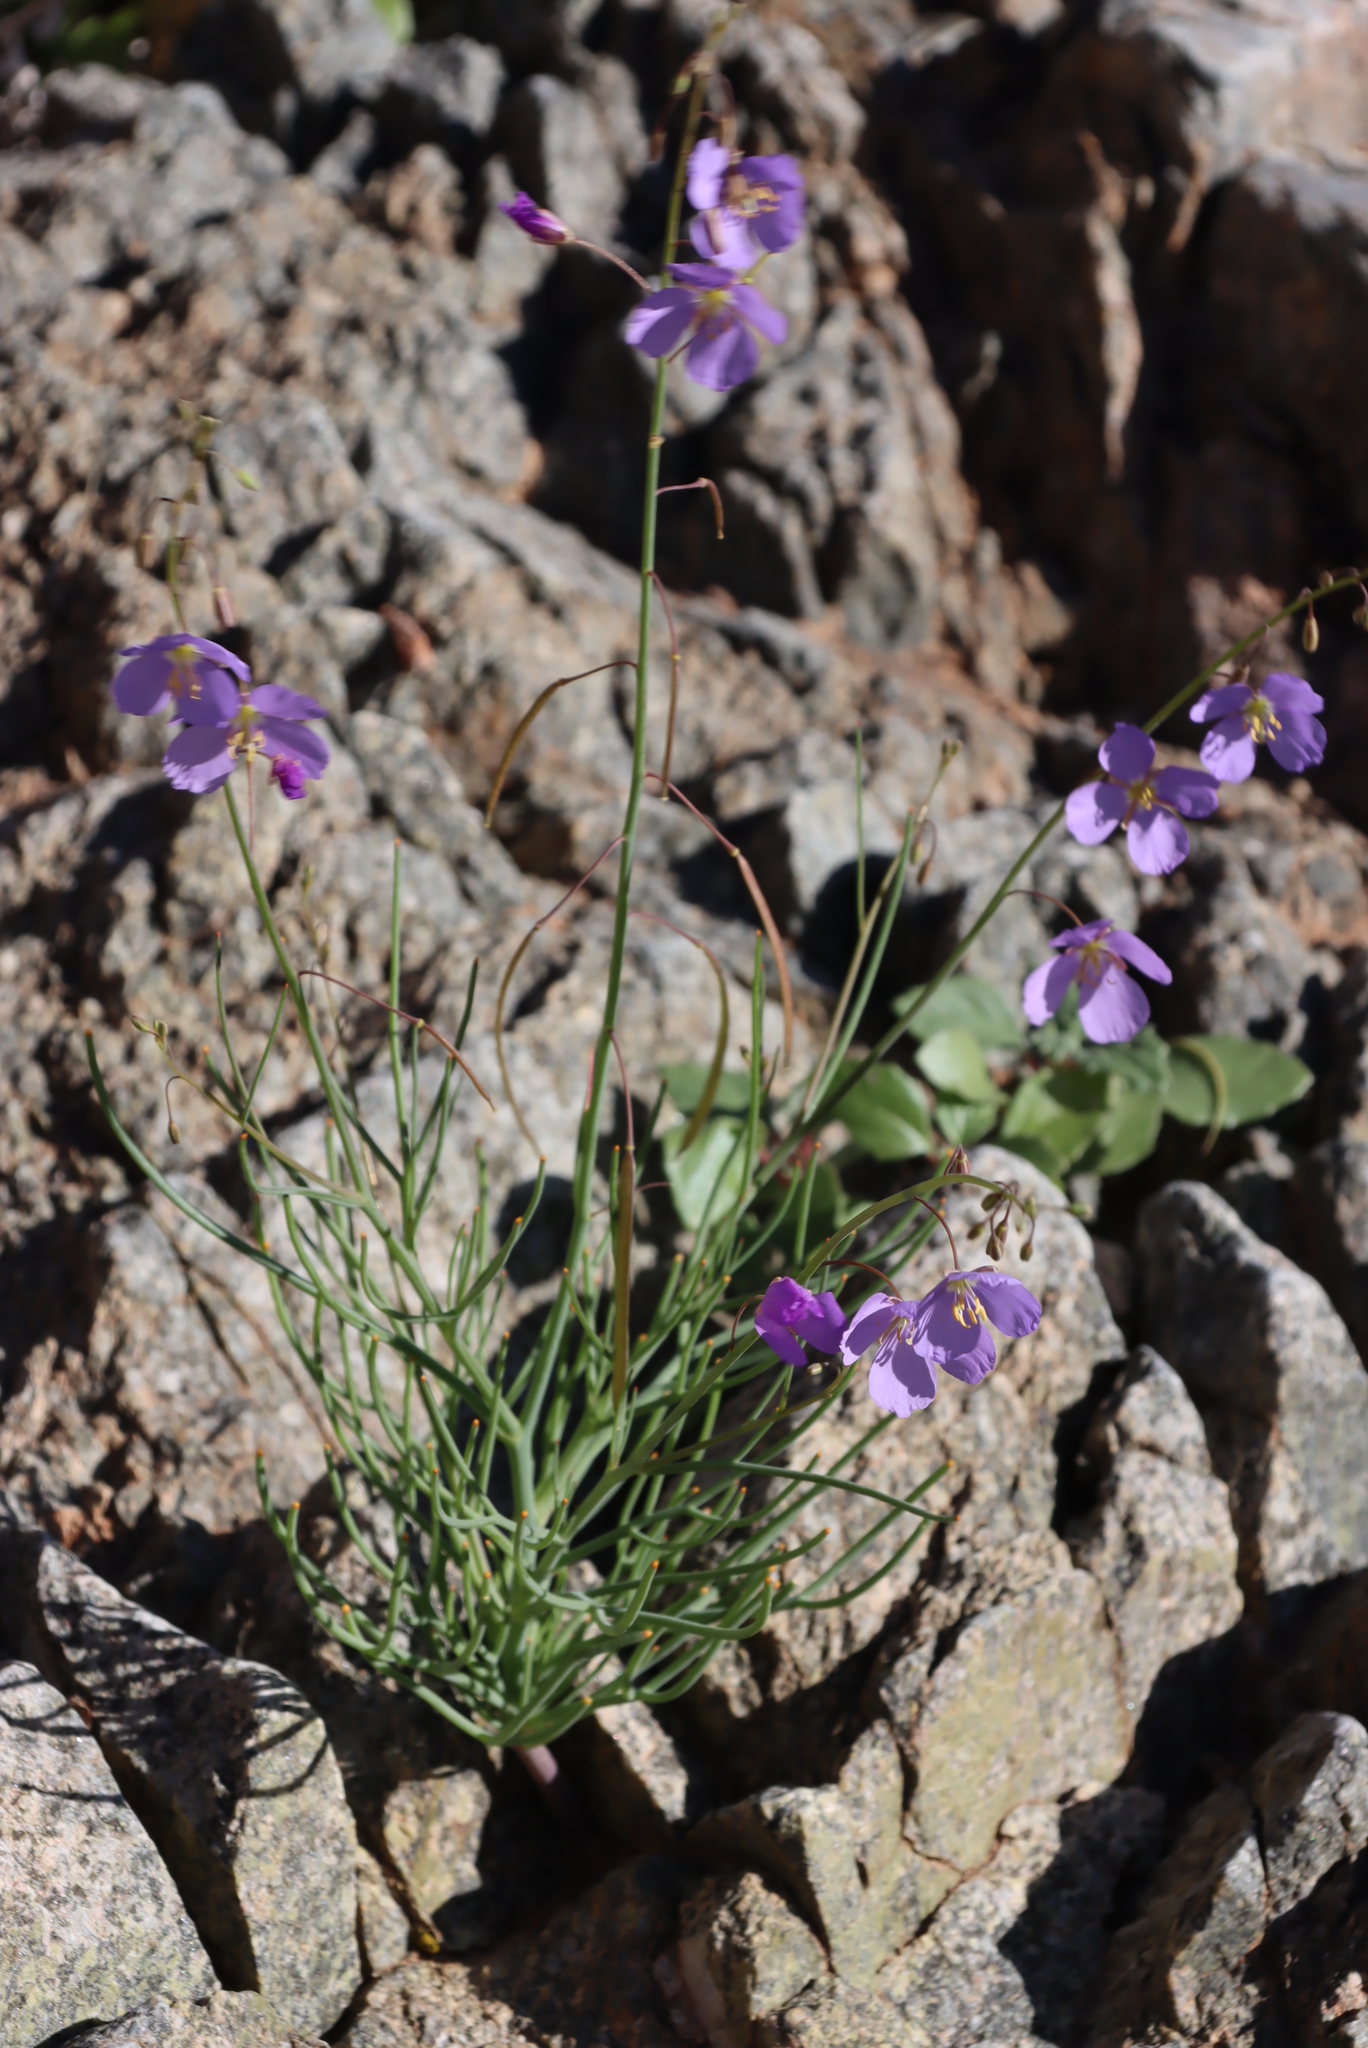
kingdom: Plantae
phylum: Tracheophyta
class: Magnoliopsida
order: Brassicales
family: Brassicaceae
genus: Heliophila
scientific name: Heliophila trifurca
